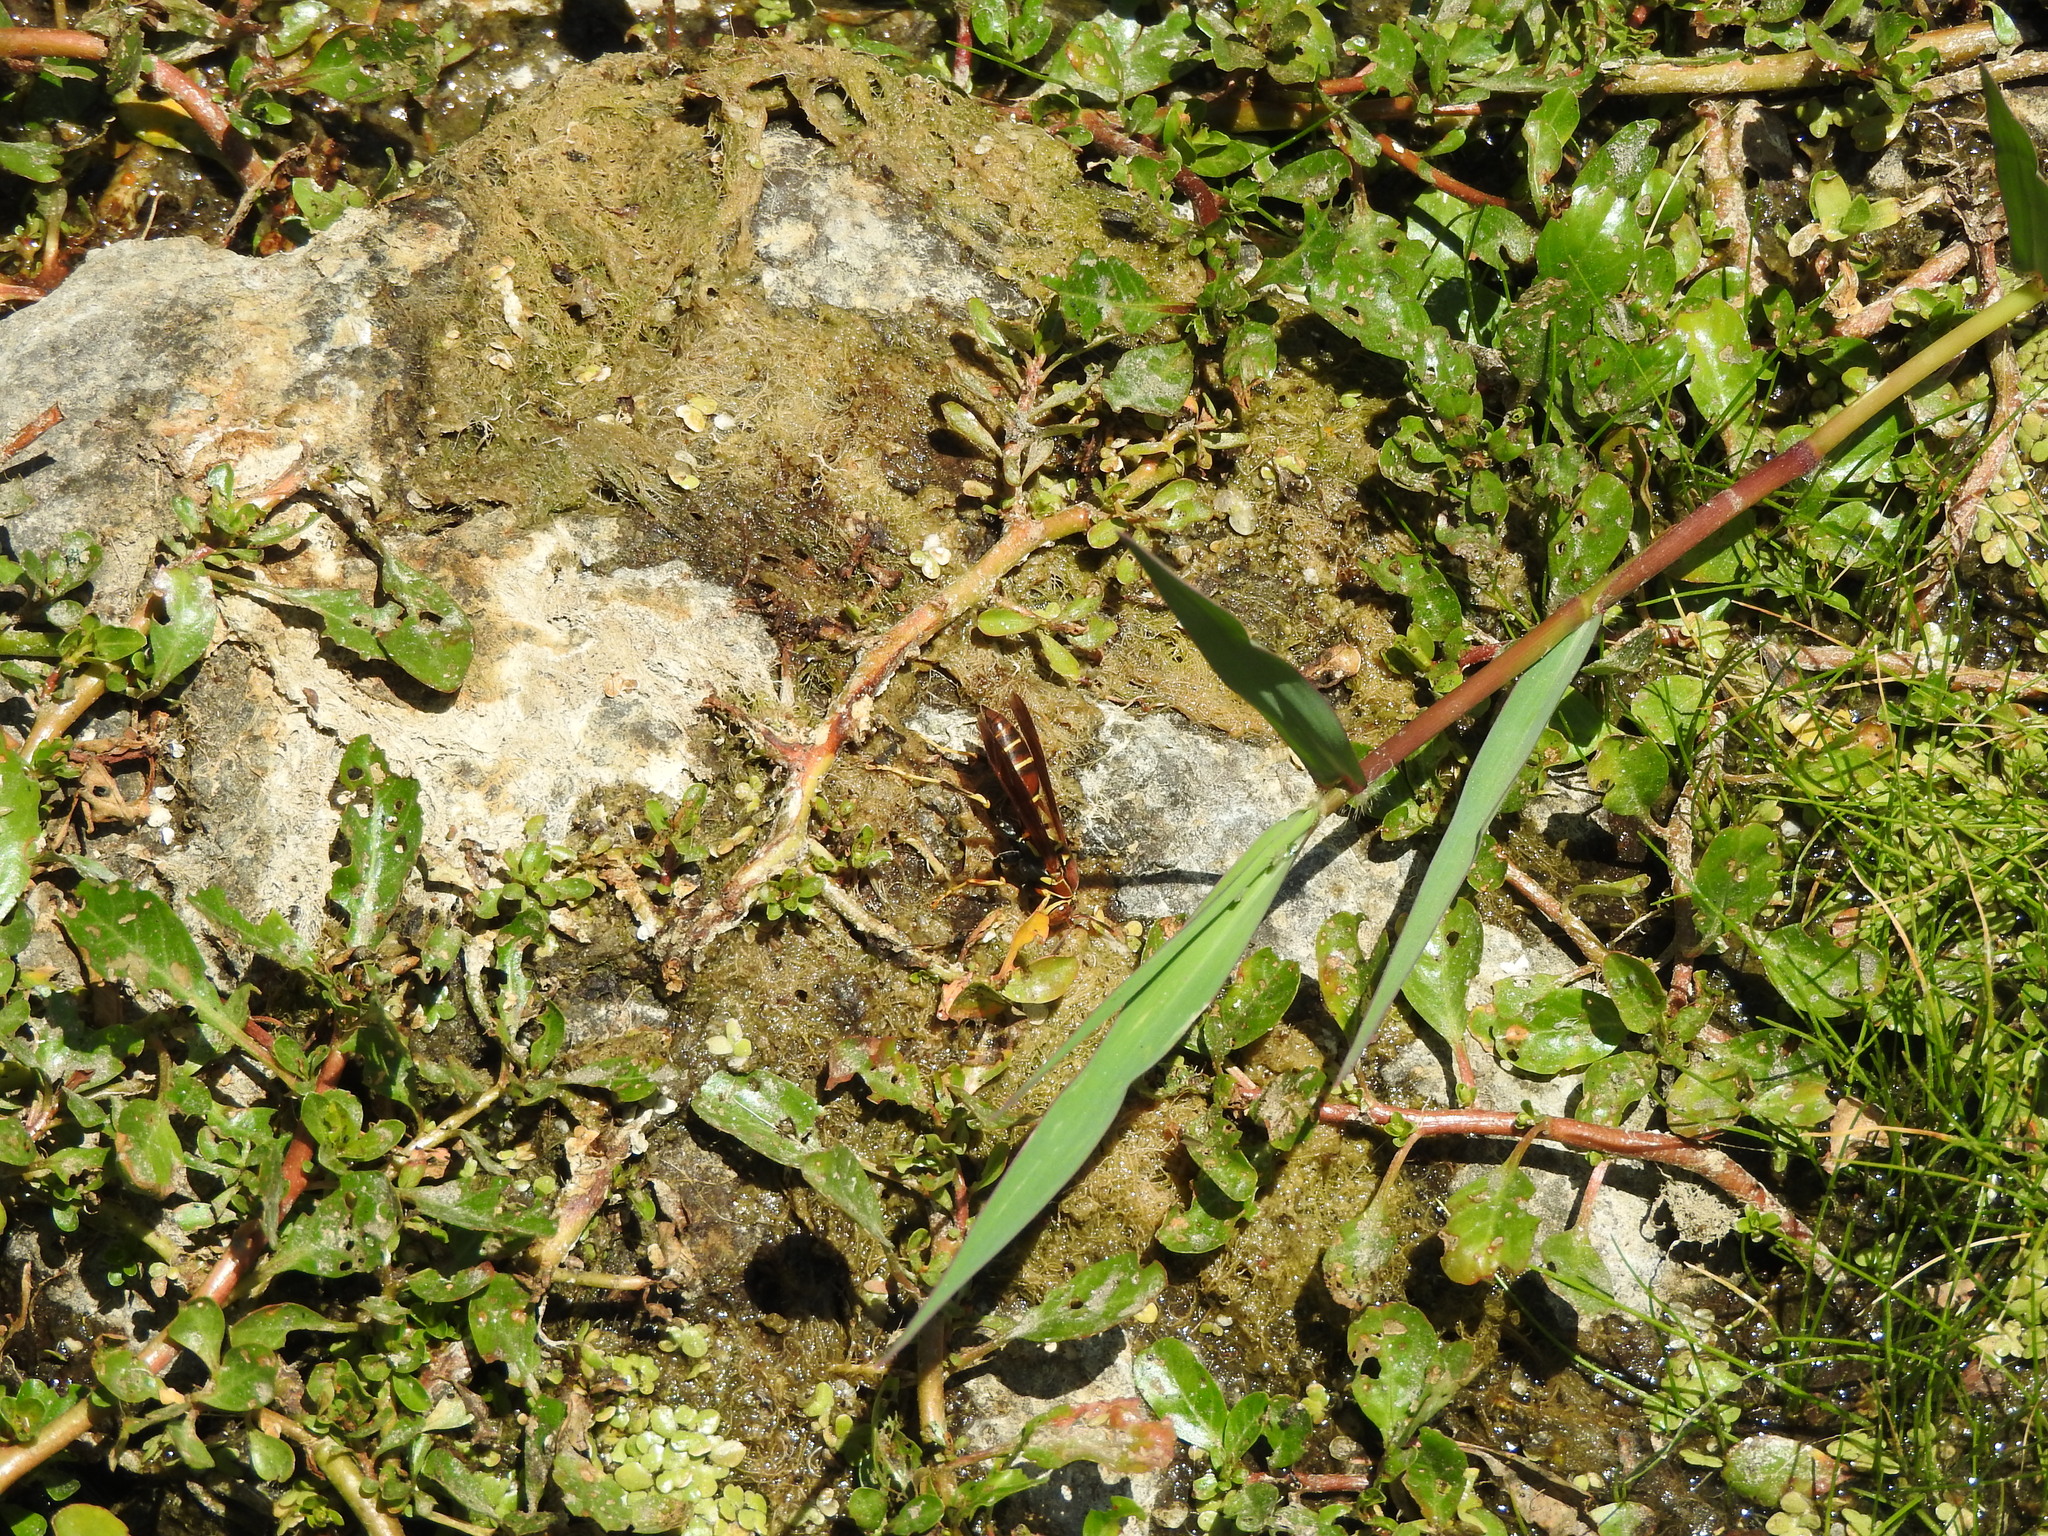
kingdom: Animalia
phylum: Arthropoda
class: Insecta
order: Hymenoptera
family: Eumenidae
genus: Polistes
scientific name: Polistes instabilis
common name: Unstable paper wasp
